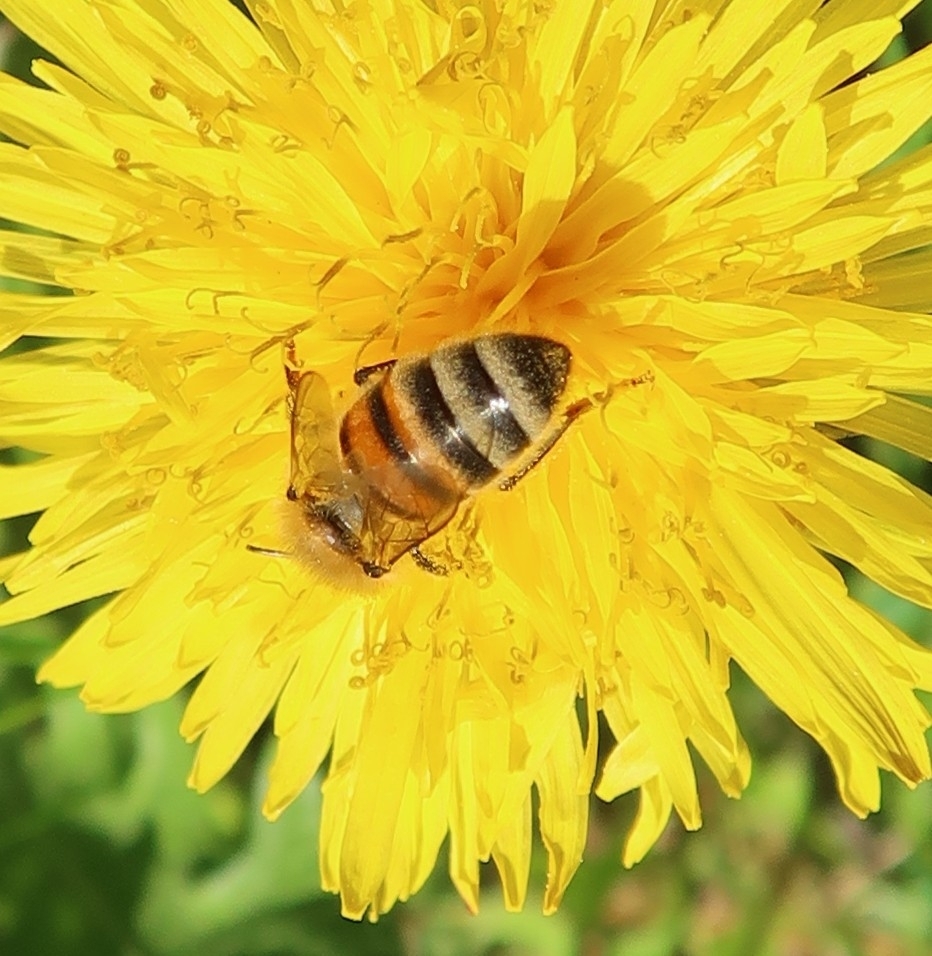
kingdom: Animalia
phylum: Arthropoda
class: Insecta
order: Hymenoptera
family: Apidae
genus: Apis
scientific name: Apis mellifera
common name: Honey bee
